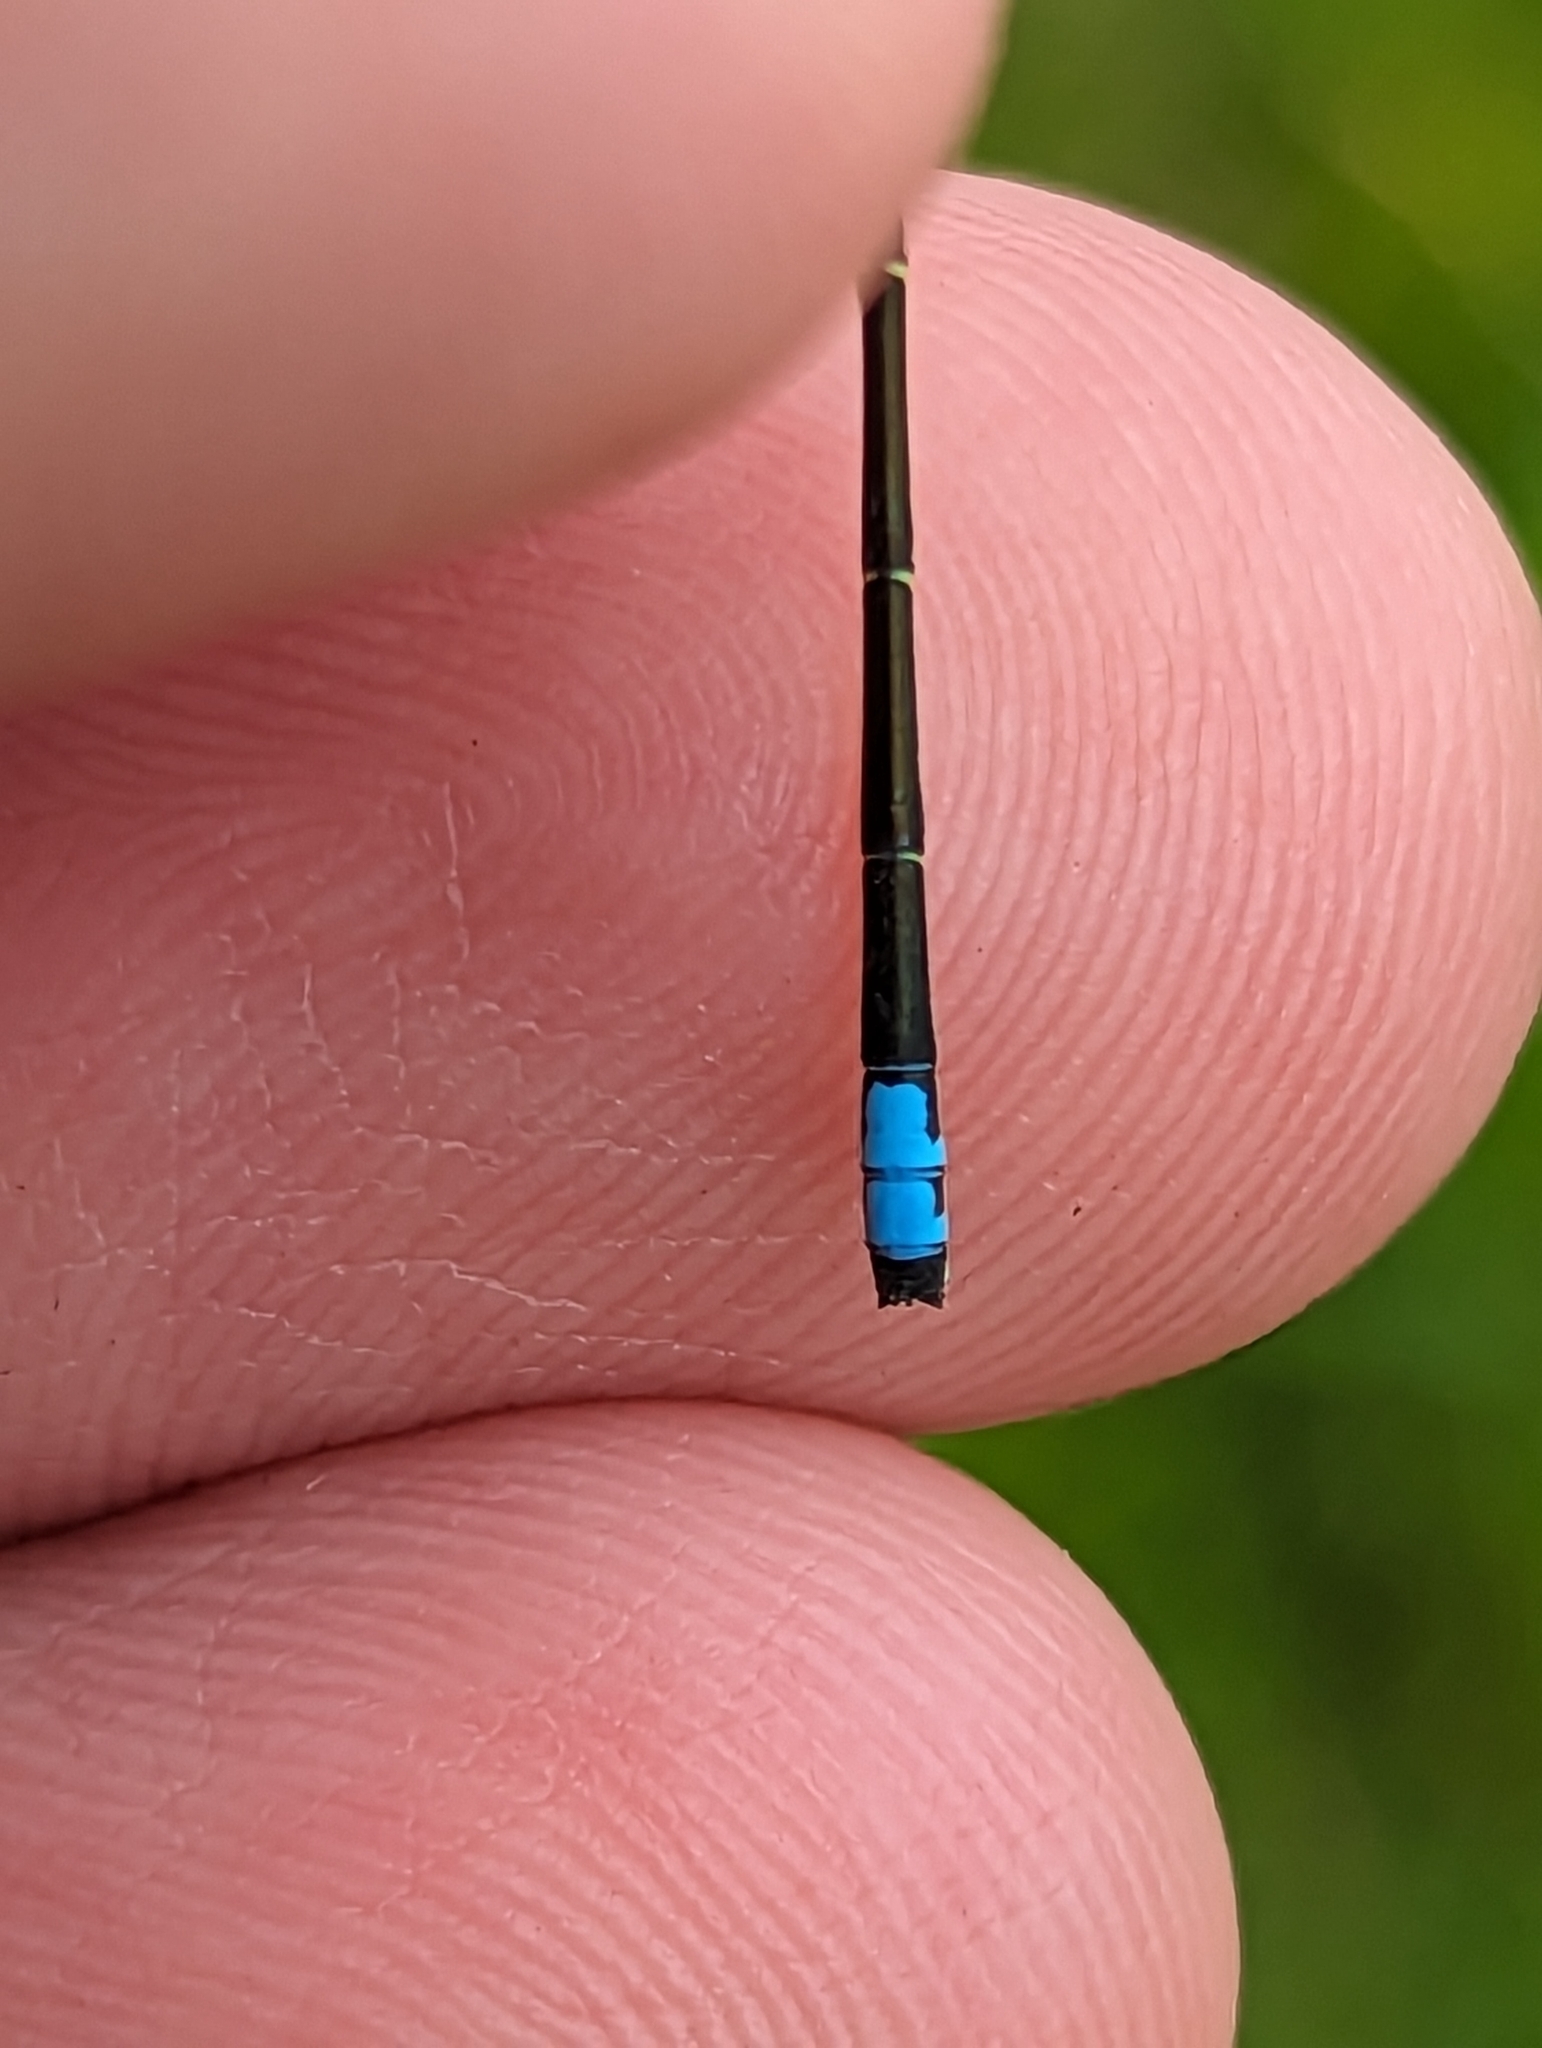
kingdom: Animalia
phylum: Arthropoda
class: Insecta
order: Odonata
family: Coenagrionidae
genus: Ischnura
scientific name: Ischnura verticalis
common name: Eastern forktail
